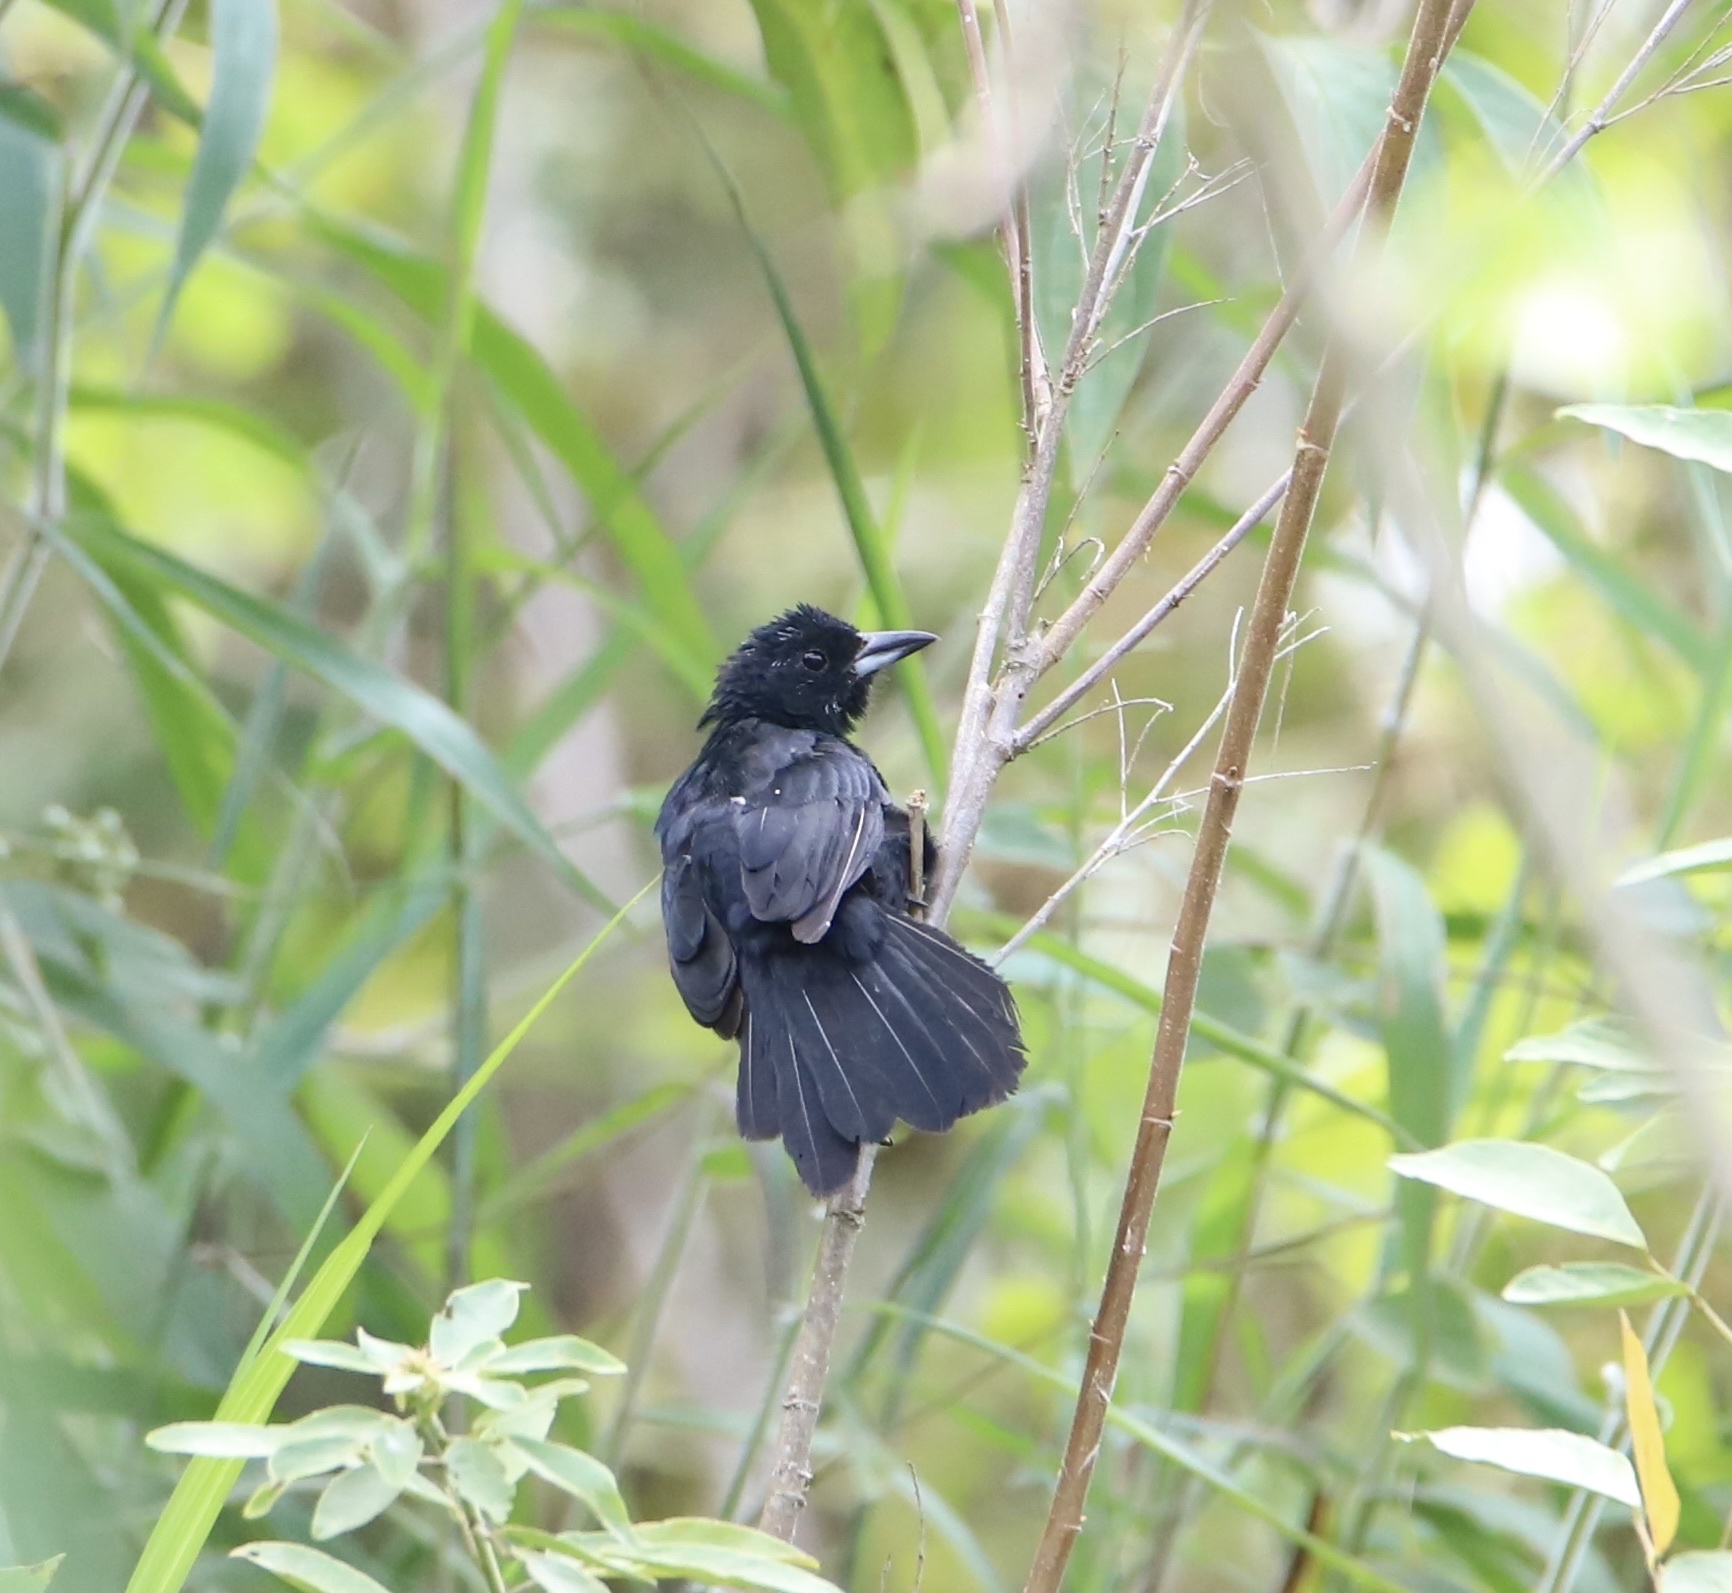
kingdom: Animalia
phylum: Chordata
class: Aves
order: Passeriformes
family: Thraupidae
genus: Tachyphonus
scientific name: Tachyphonus rufus
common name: White-lined tanager
